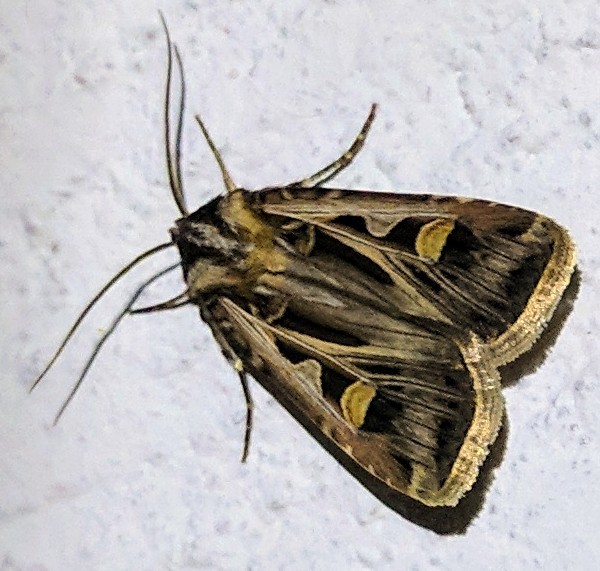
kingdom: Animalia
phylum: Arthropoda
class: Insecta
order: Lepidoptera
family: Noctuidae
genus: Feltia
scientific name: Feltia jaculifera
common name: Dingy cutworm moth
